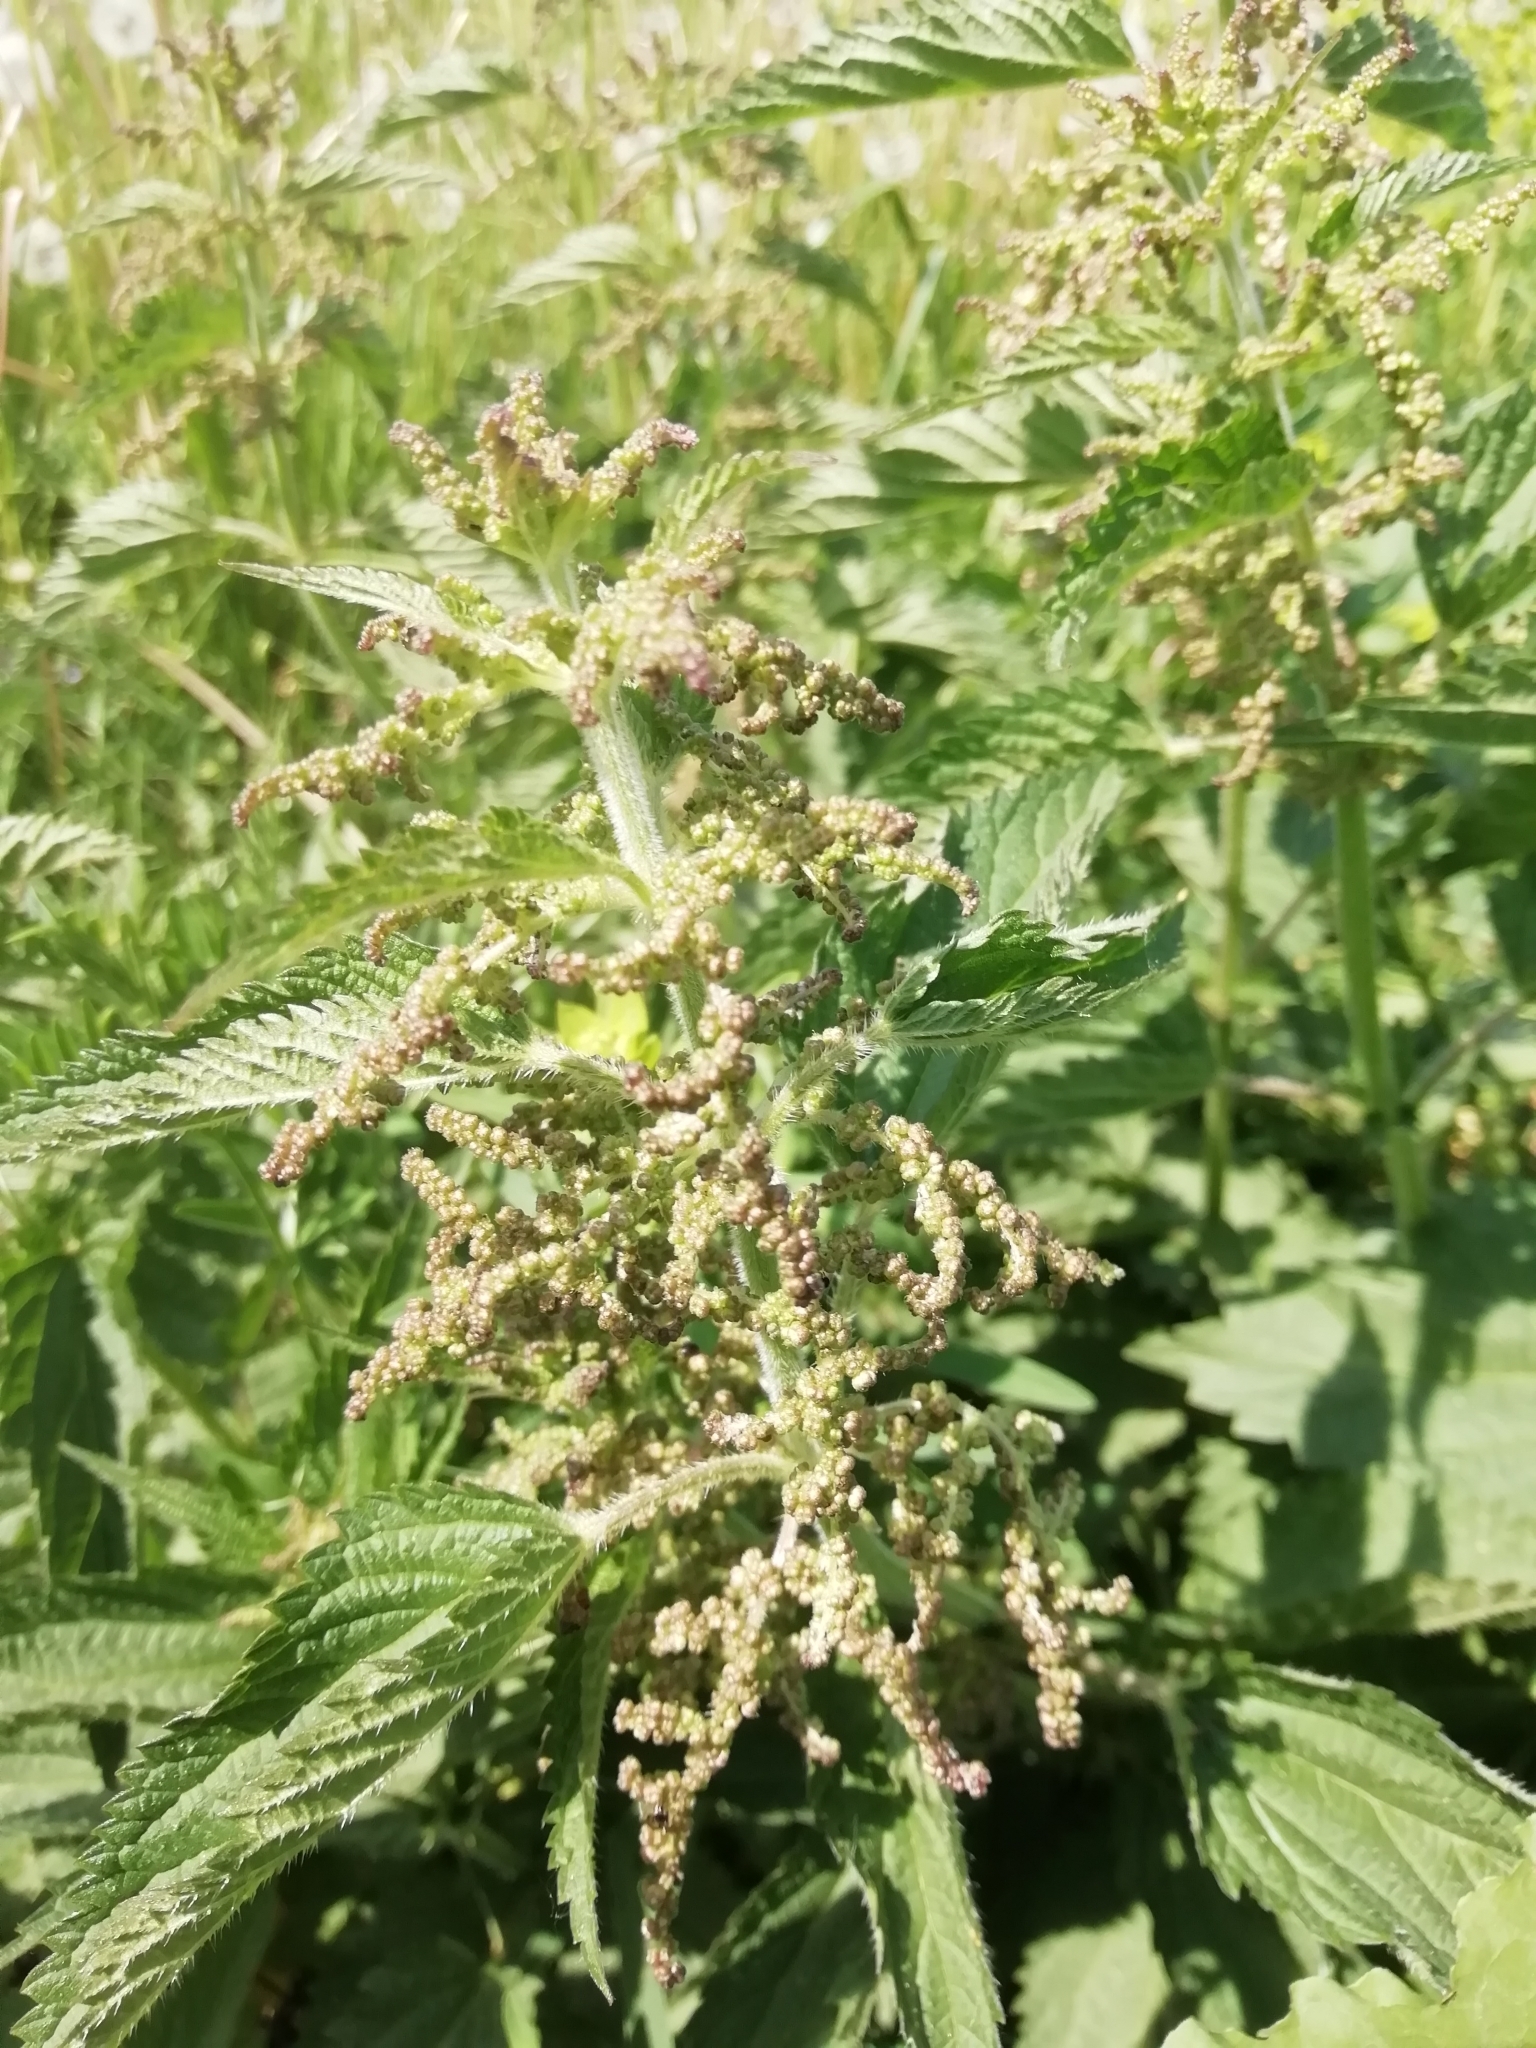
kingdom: Plantae
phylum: Tracheophyta
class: Magnoliopsida
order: Rosales
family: Urticaceae
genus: Urtica
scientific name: Urtica dioica
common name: Common nettle
